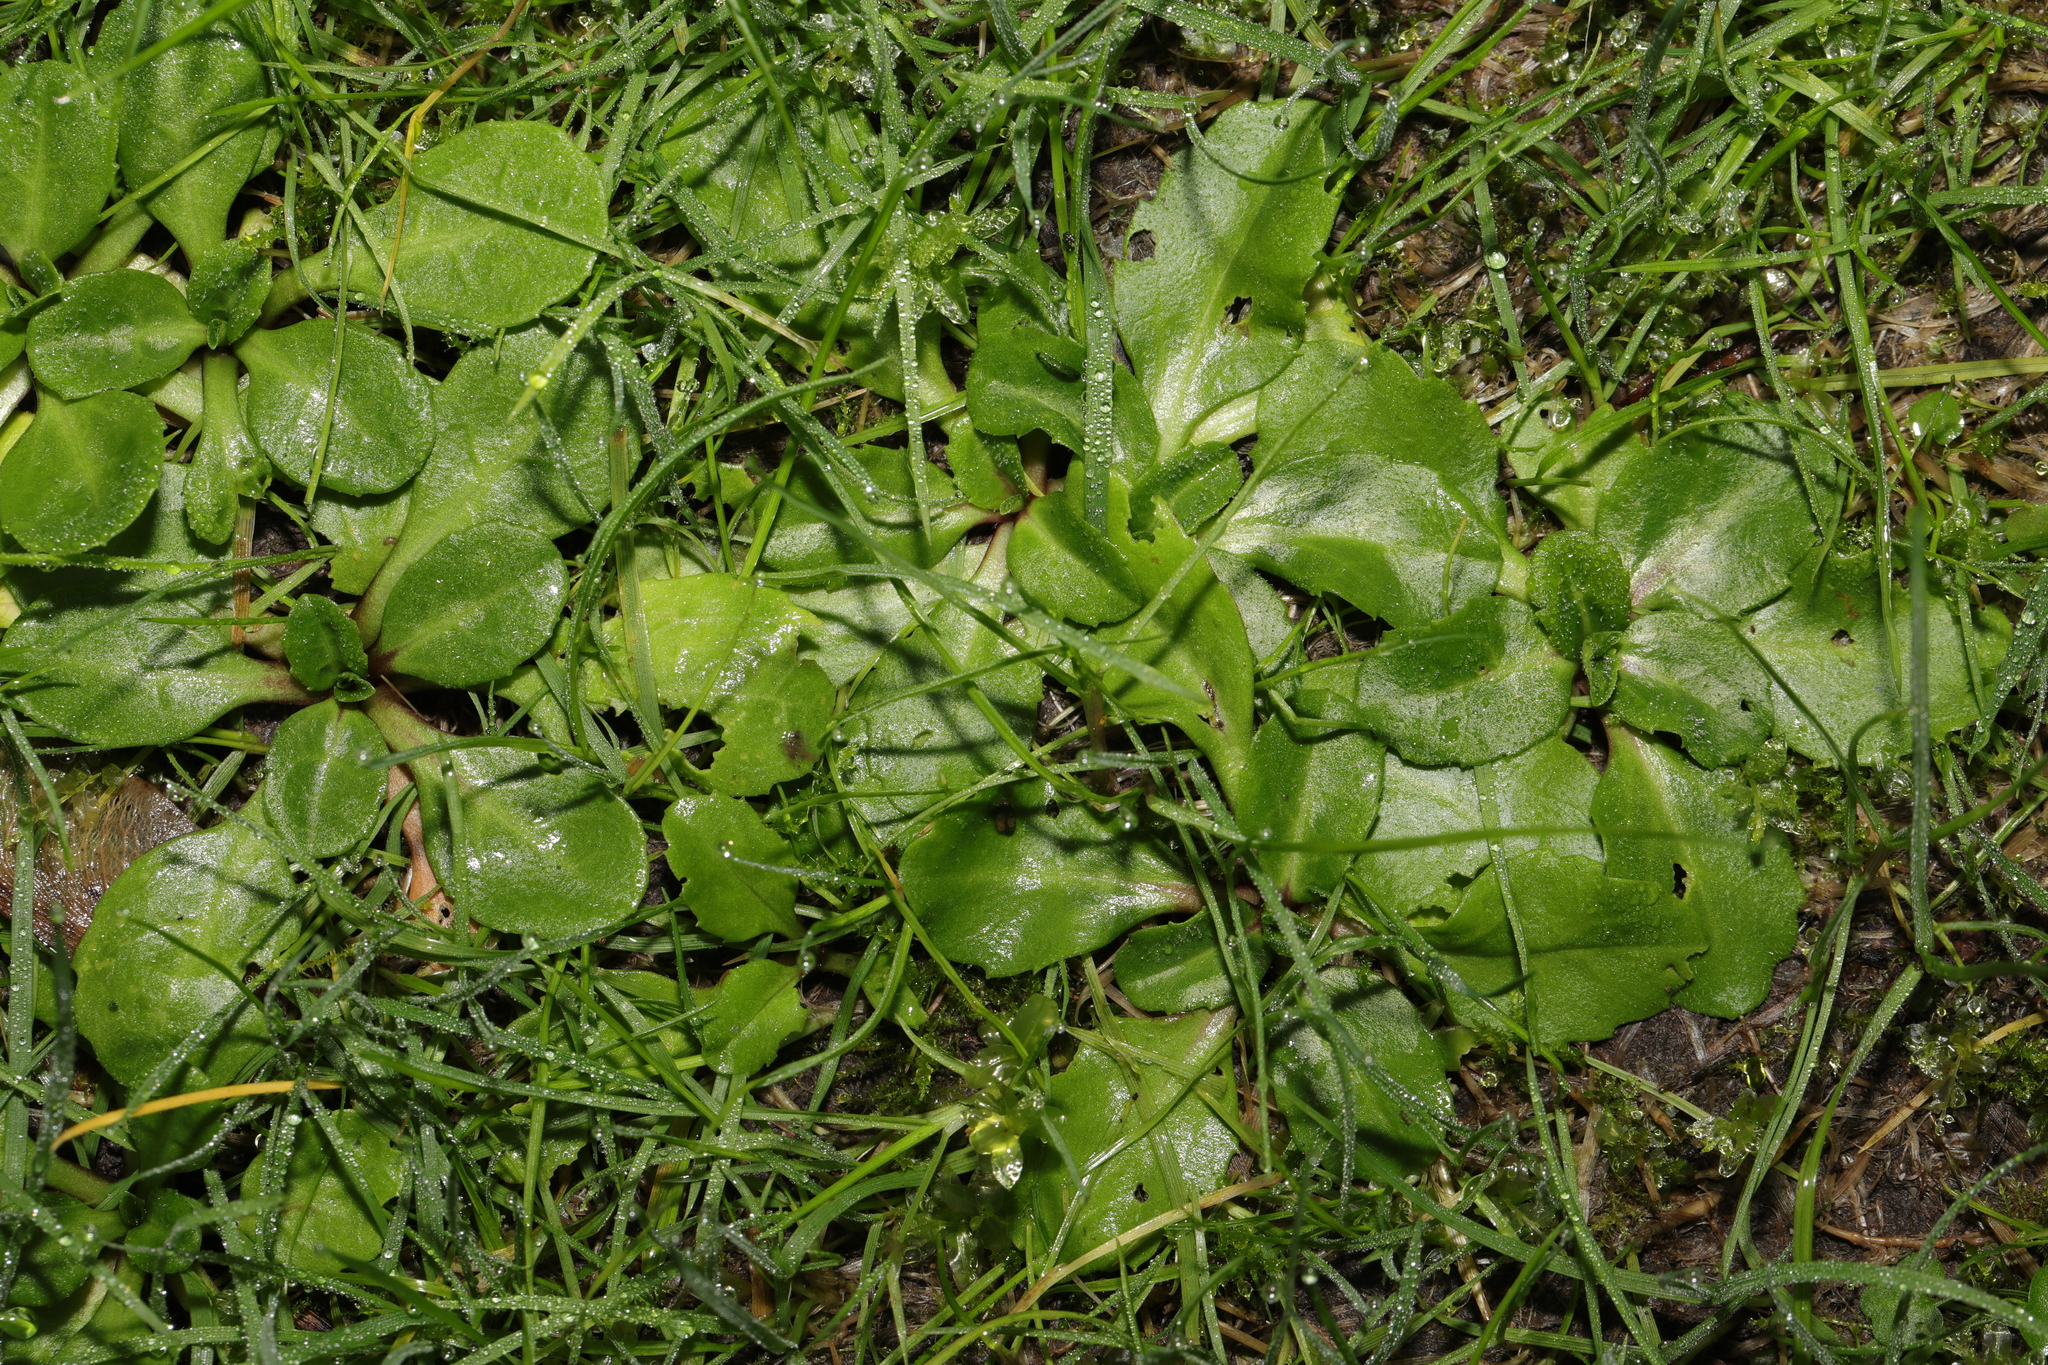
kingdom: Plantae
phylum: Tracheophyta
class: Magnoliopsida
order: Asterales
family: Asteraceae
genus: Bellis
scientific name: Bellis perennis
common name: Lawndaisy
